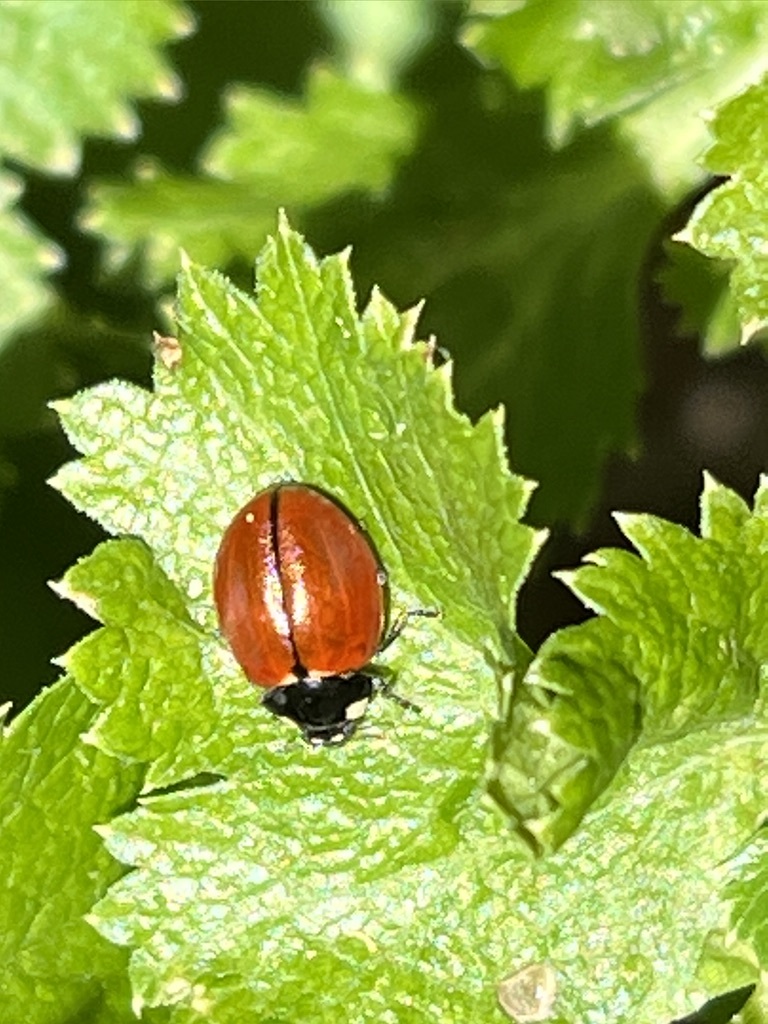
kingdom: Animalia
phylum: Arthropoda
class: Insecta
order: Coleoptera
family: Coccinellidae
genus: Coccinella
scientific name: Coccinella californica
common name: Lady beetle
